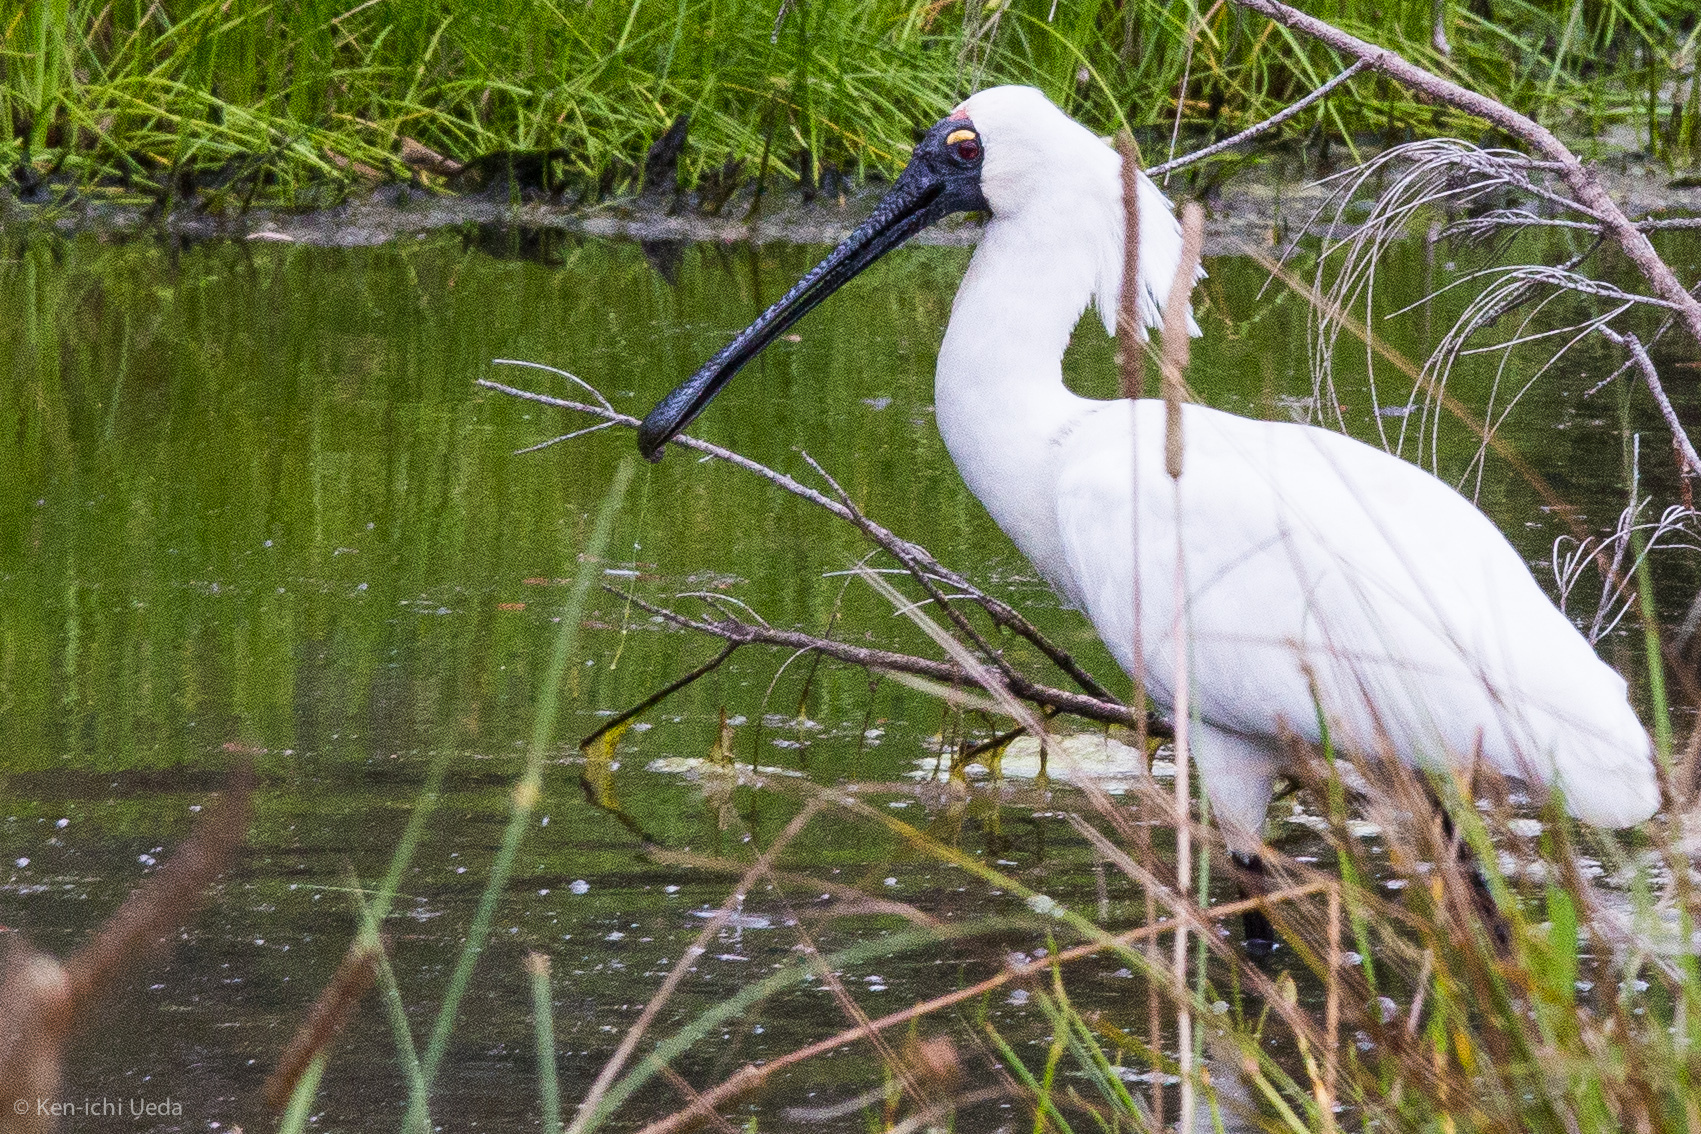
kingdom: Animalia
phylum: Chordata
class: Aves
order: Pelecaniformes
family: Threskiornithidae
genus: Platalea
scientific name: Platalea regia
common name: Royal spoonbill
